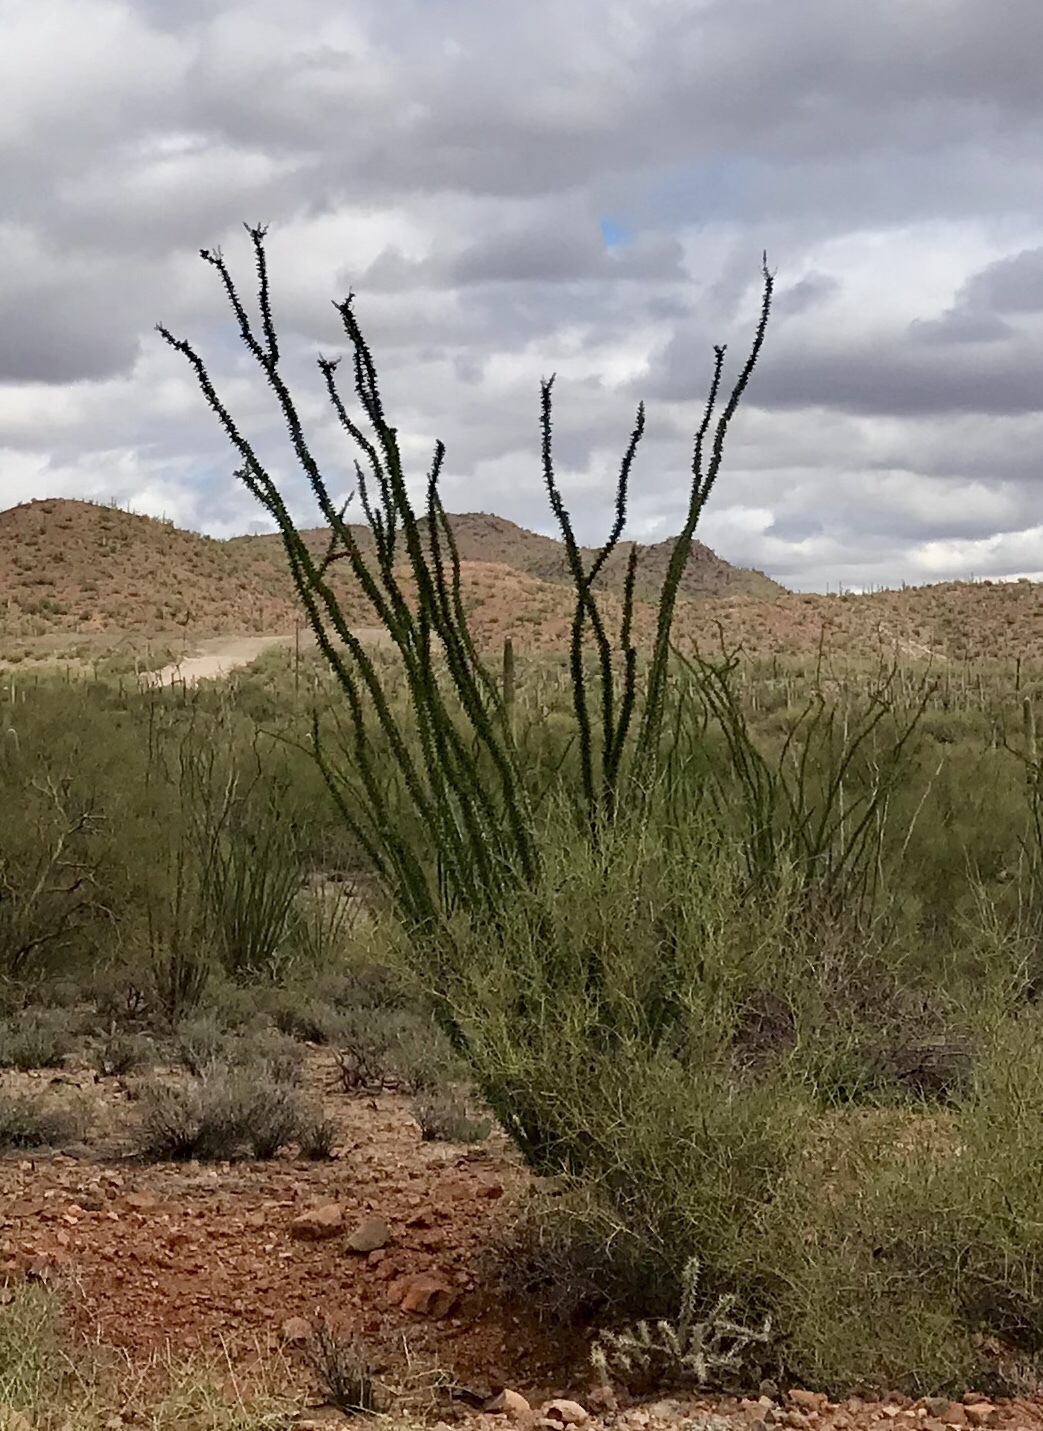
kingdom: Plantae
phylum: Tracheophyta
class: Magnoliopsida
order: Ericales
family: Fouquieriaceae
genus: Fouquieria
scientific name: Fouquieria splendens
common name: Vine-cactus
